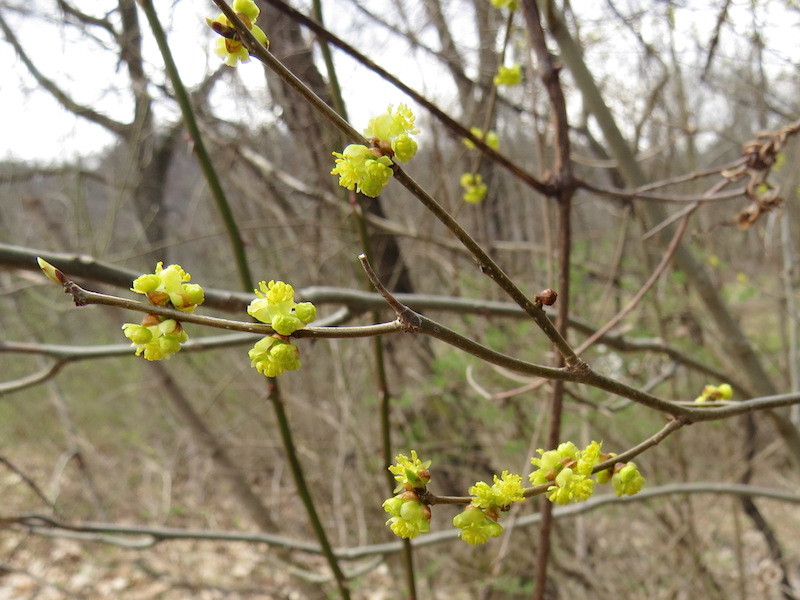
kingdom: Plantae
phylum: Tracheophyta
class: Magnoliopsida
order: Laurales
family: Lauraceae
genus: Lindera
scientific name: Lindera benzoin
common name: Spicebush
